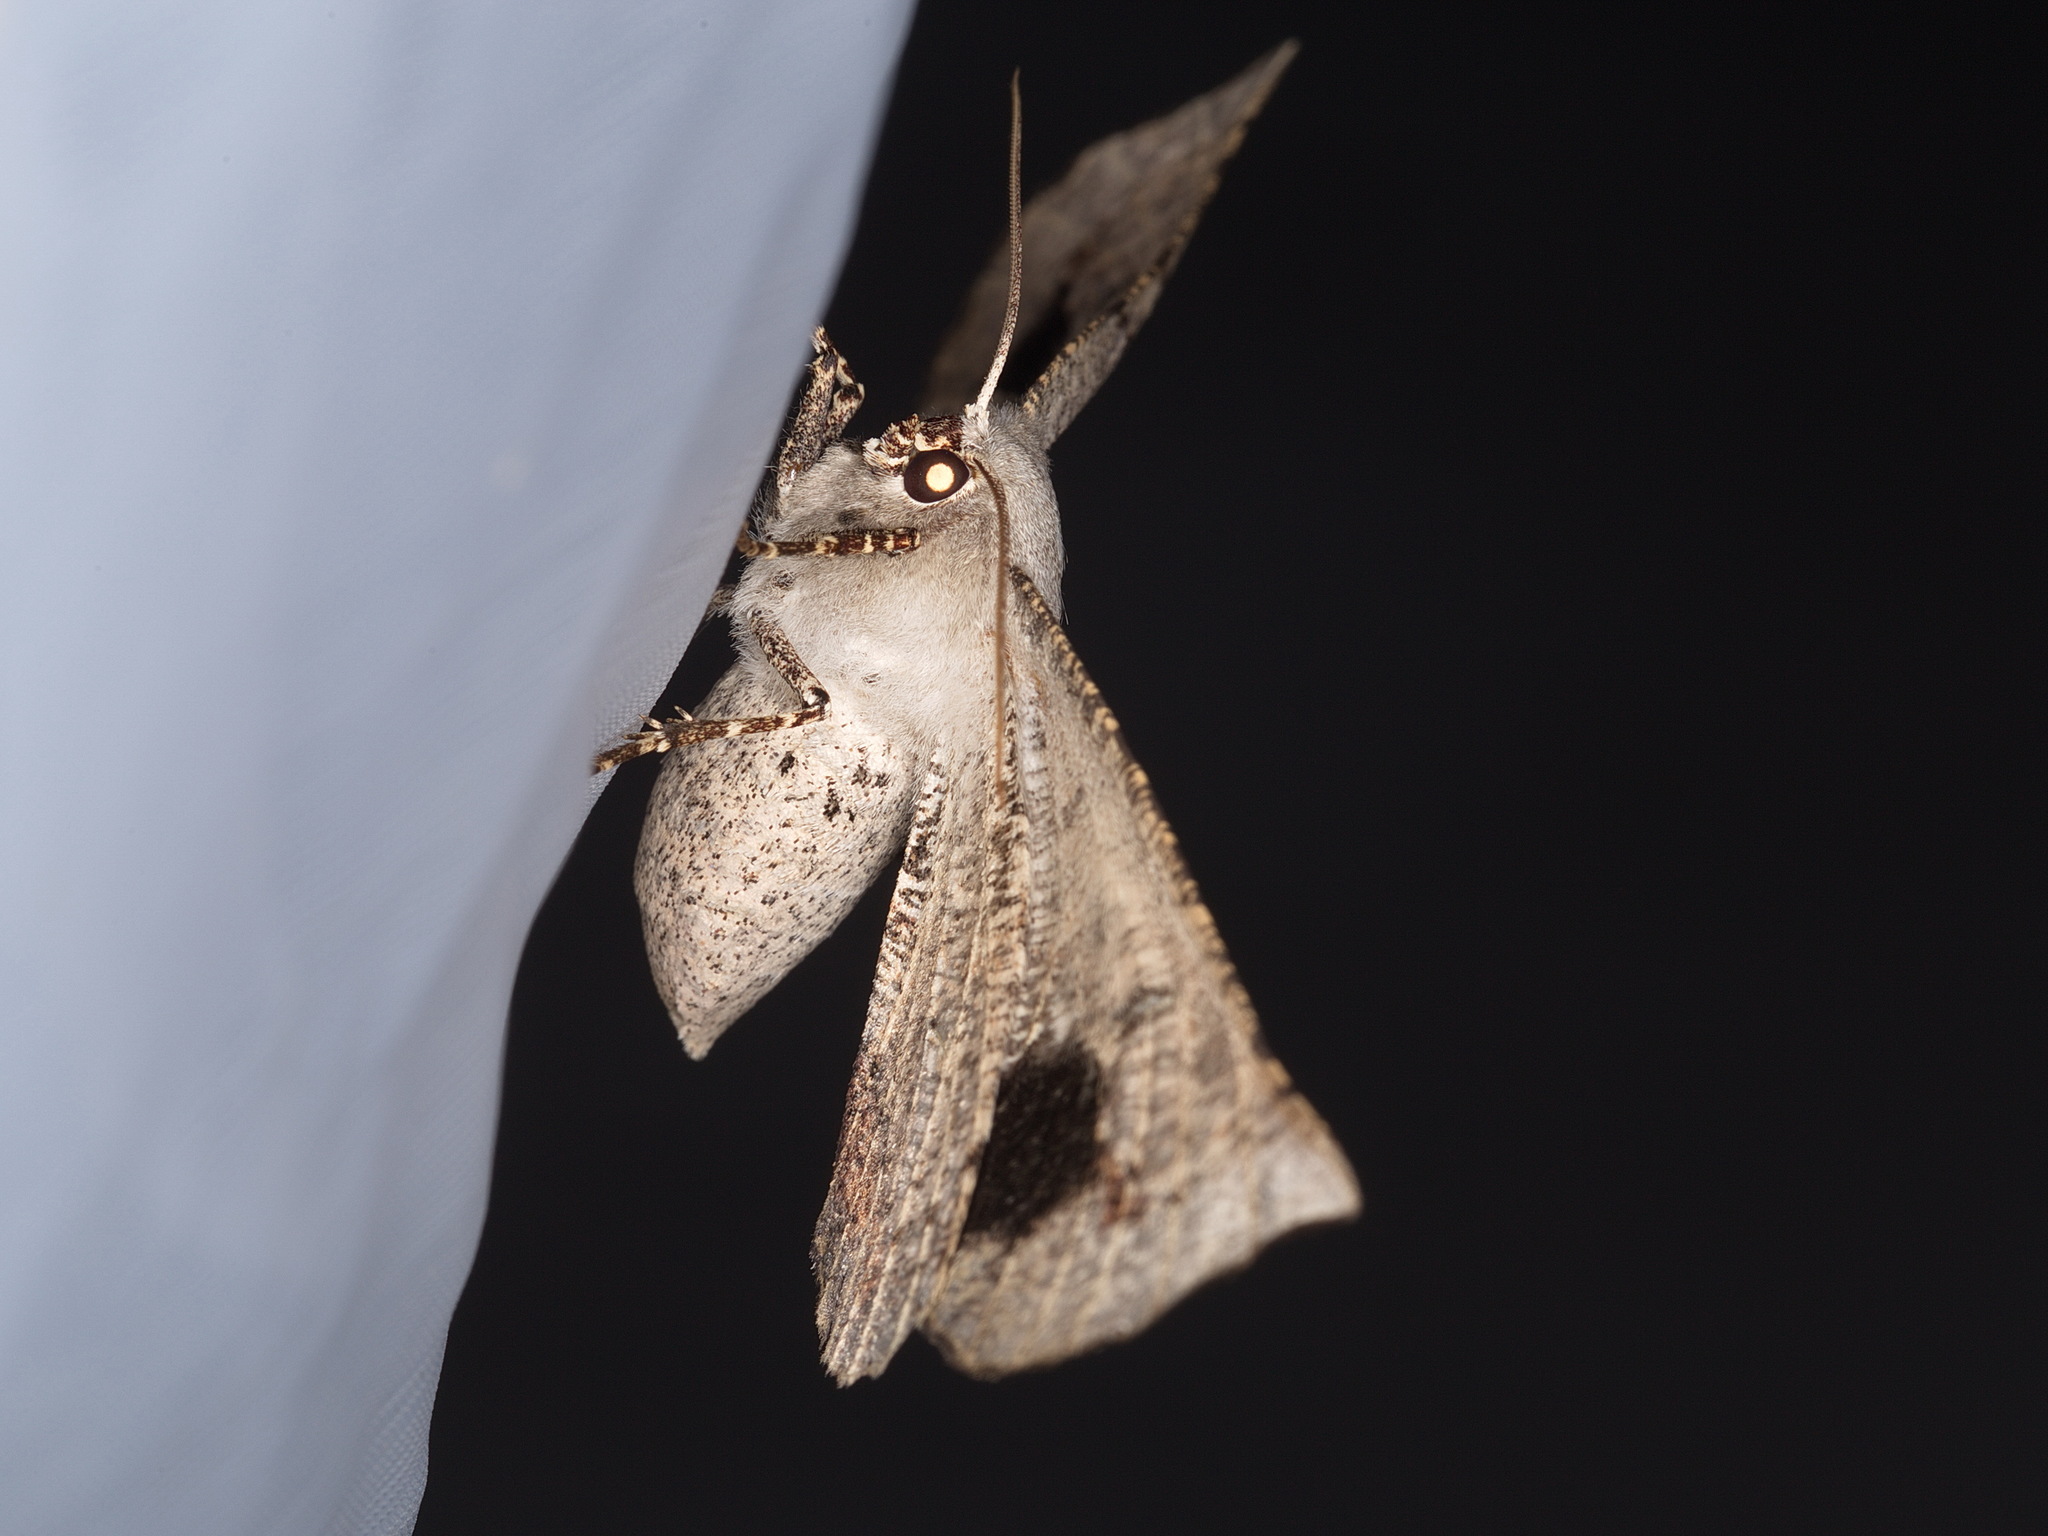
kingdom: Animalia
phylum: Arthropoda
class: Insecta
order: Lepidoptera
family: Geometridae
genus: Circopetes
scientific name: Circopetes obtusata
